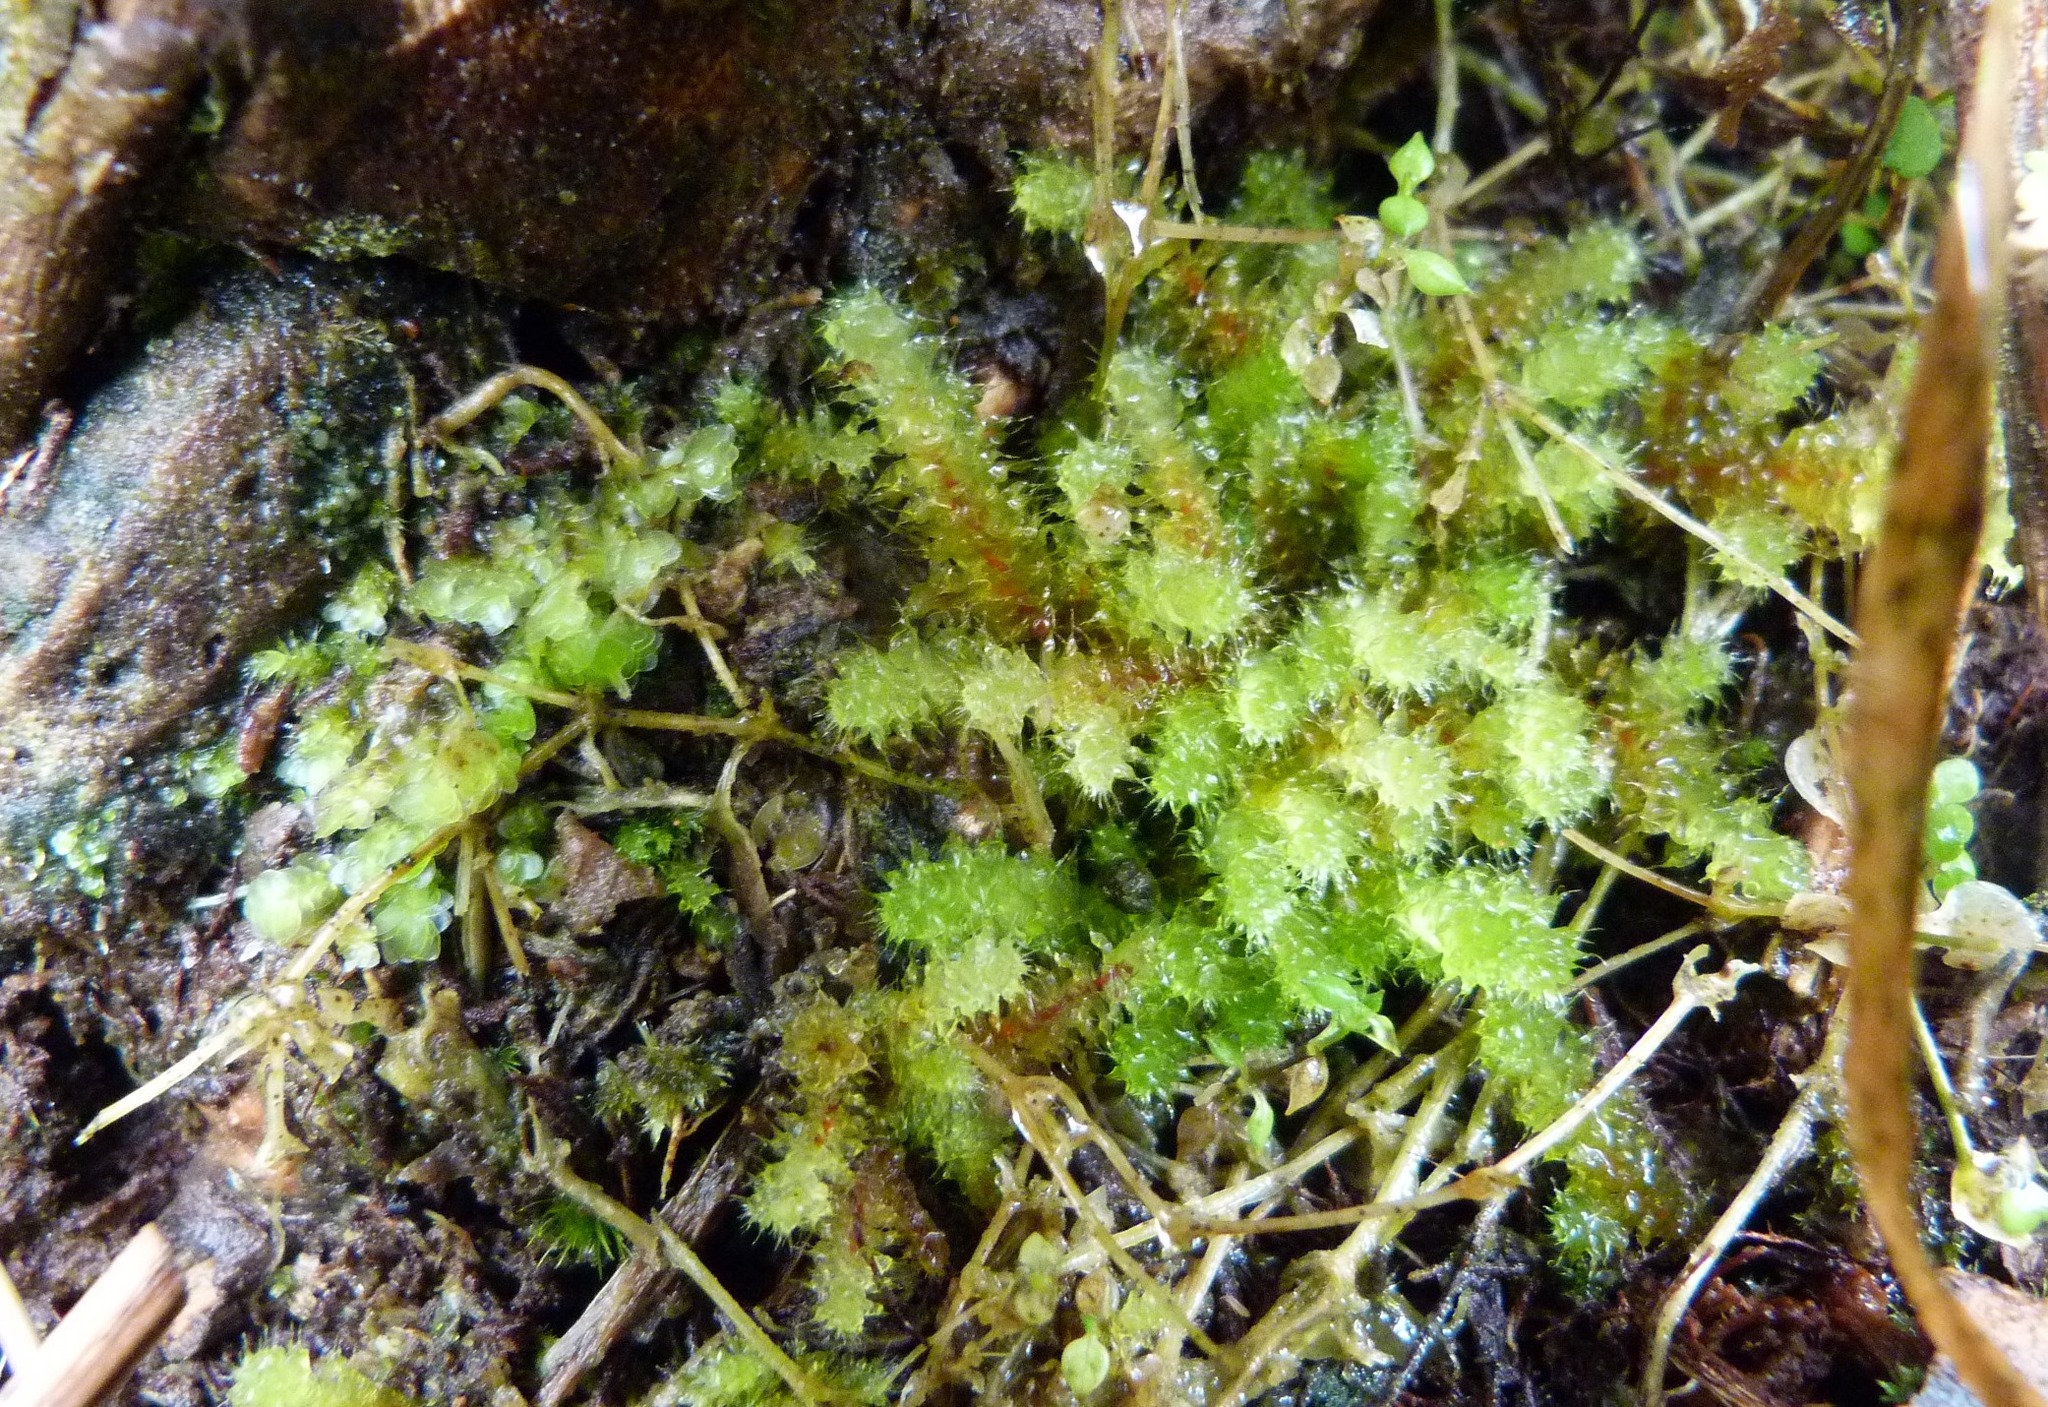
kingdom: Plantae
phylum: Bryophyta
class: Bryopsida
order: Ptychomniales
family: Ptychomniaceae
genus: Ptychomnion
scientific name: Ptychomnion aciculare
